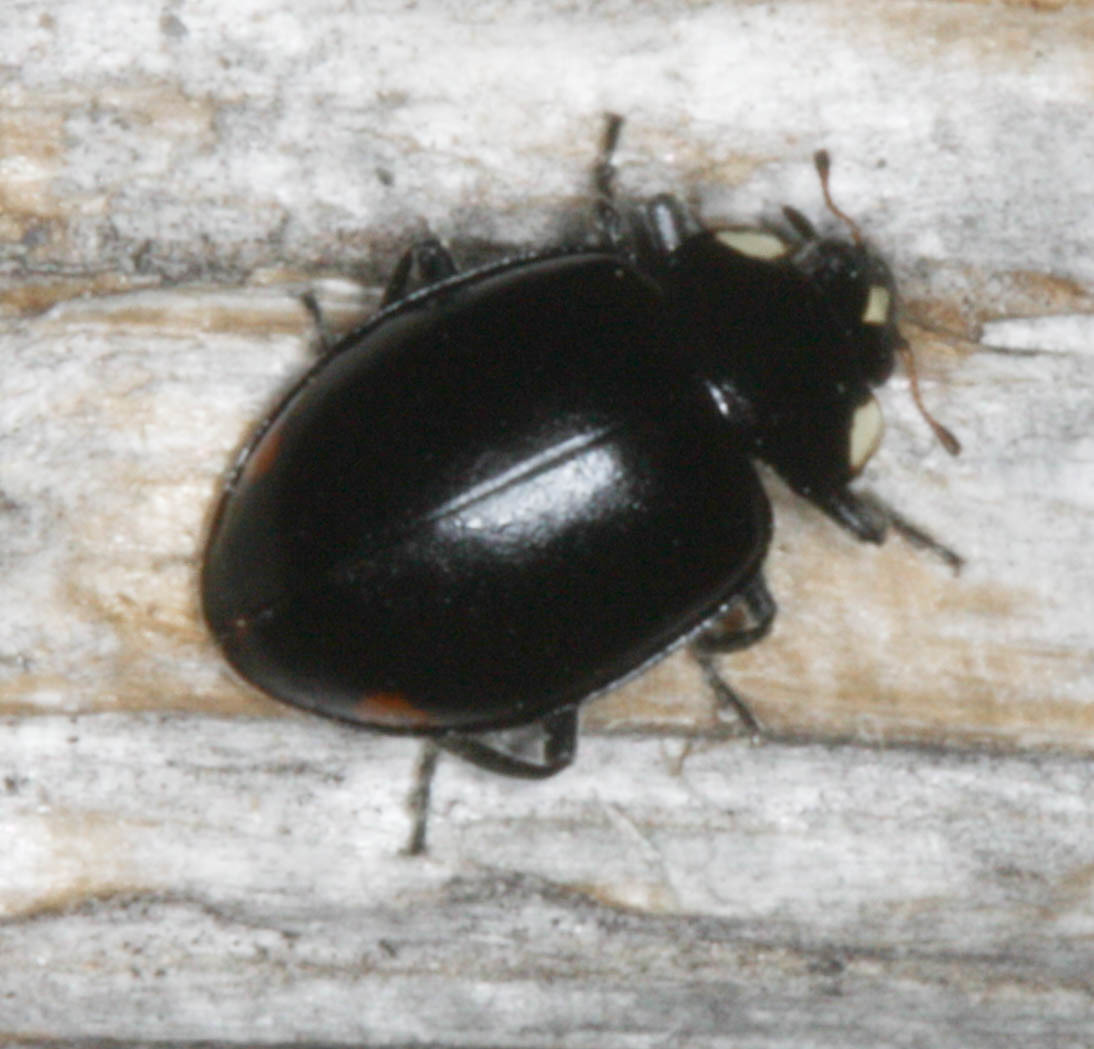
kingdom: Animalia
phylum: Arthropoda
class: Insecta
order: Coleoptera
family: Coccinellidae
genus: Hippodamia
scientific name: Hippodamia moesta
